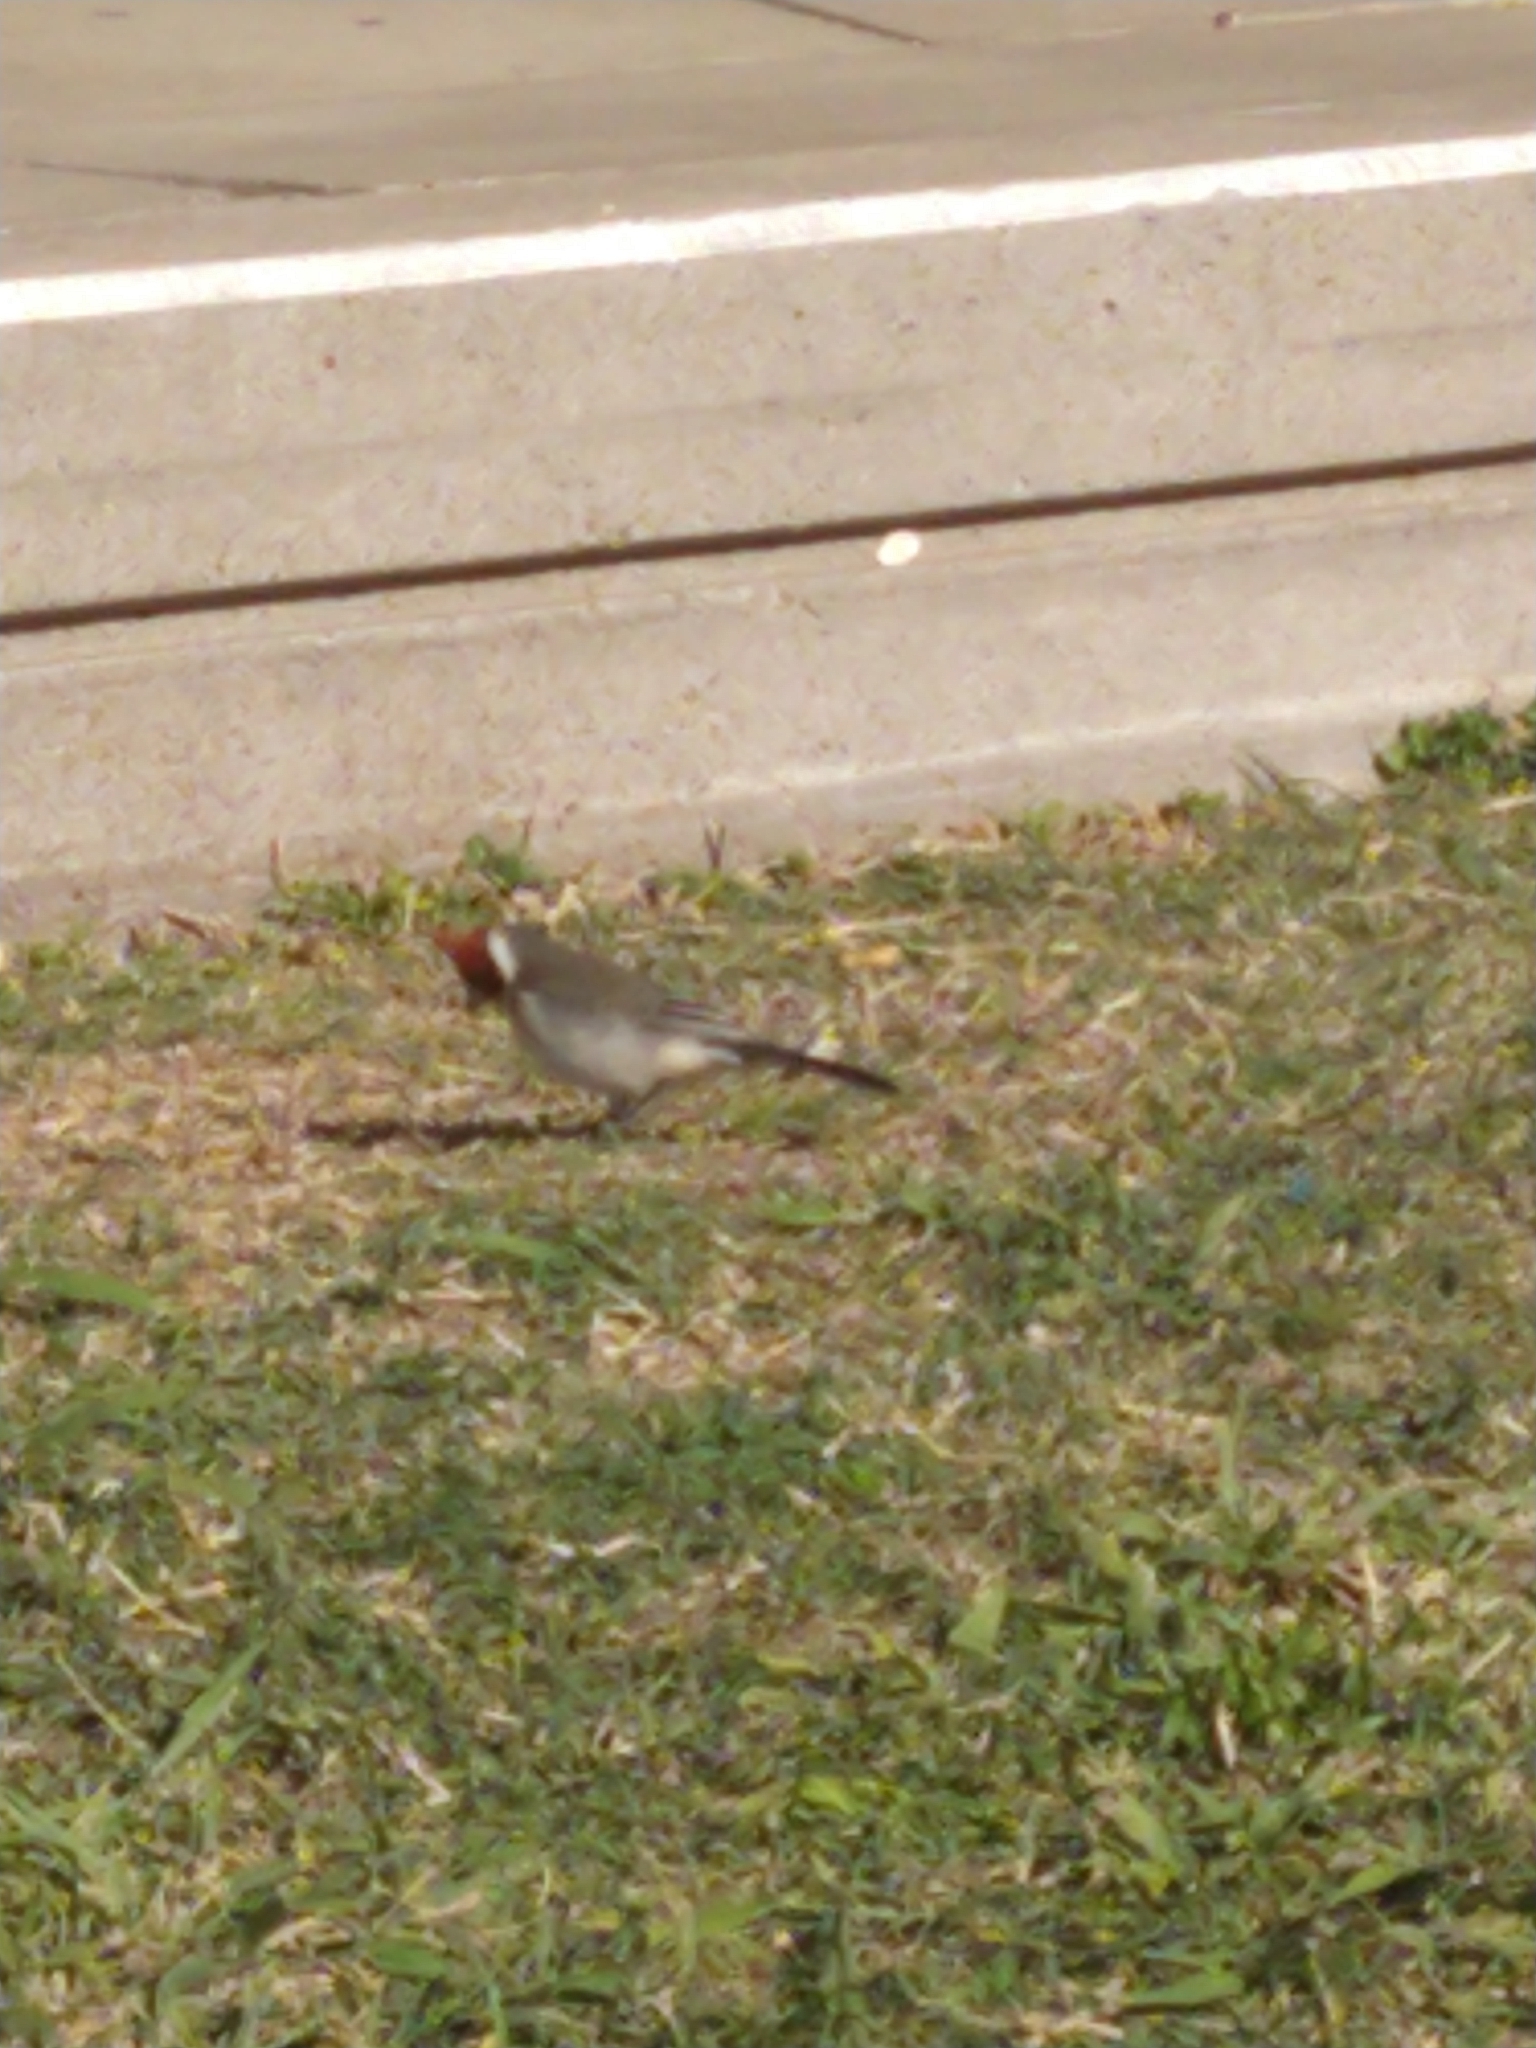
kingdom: Animalia
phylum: Chordata
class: Aves
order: Passeriformes
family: Thraupidae
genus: Paroaria
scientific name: Paroaria coronata
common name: Red-crested cardinal
